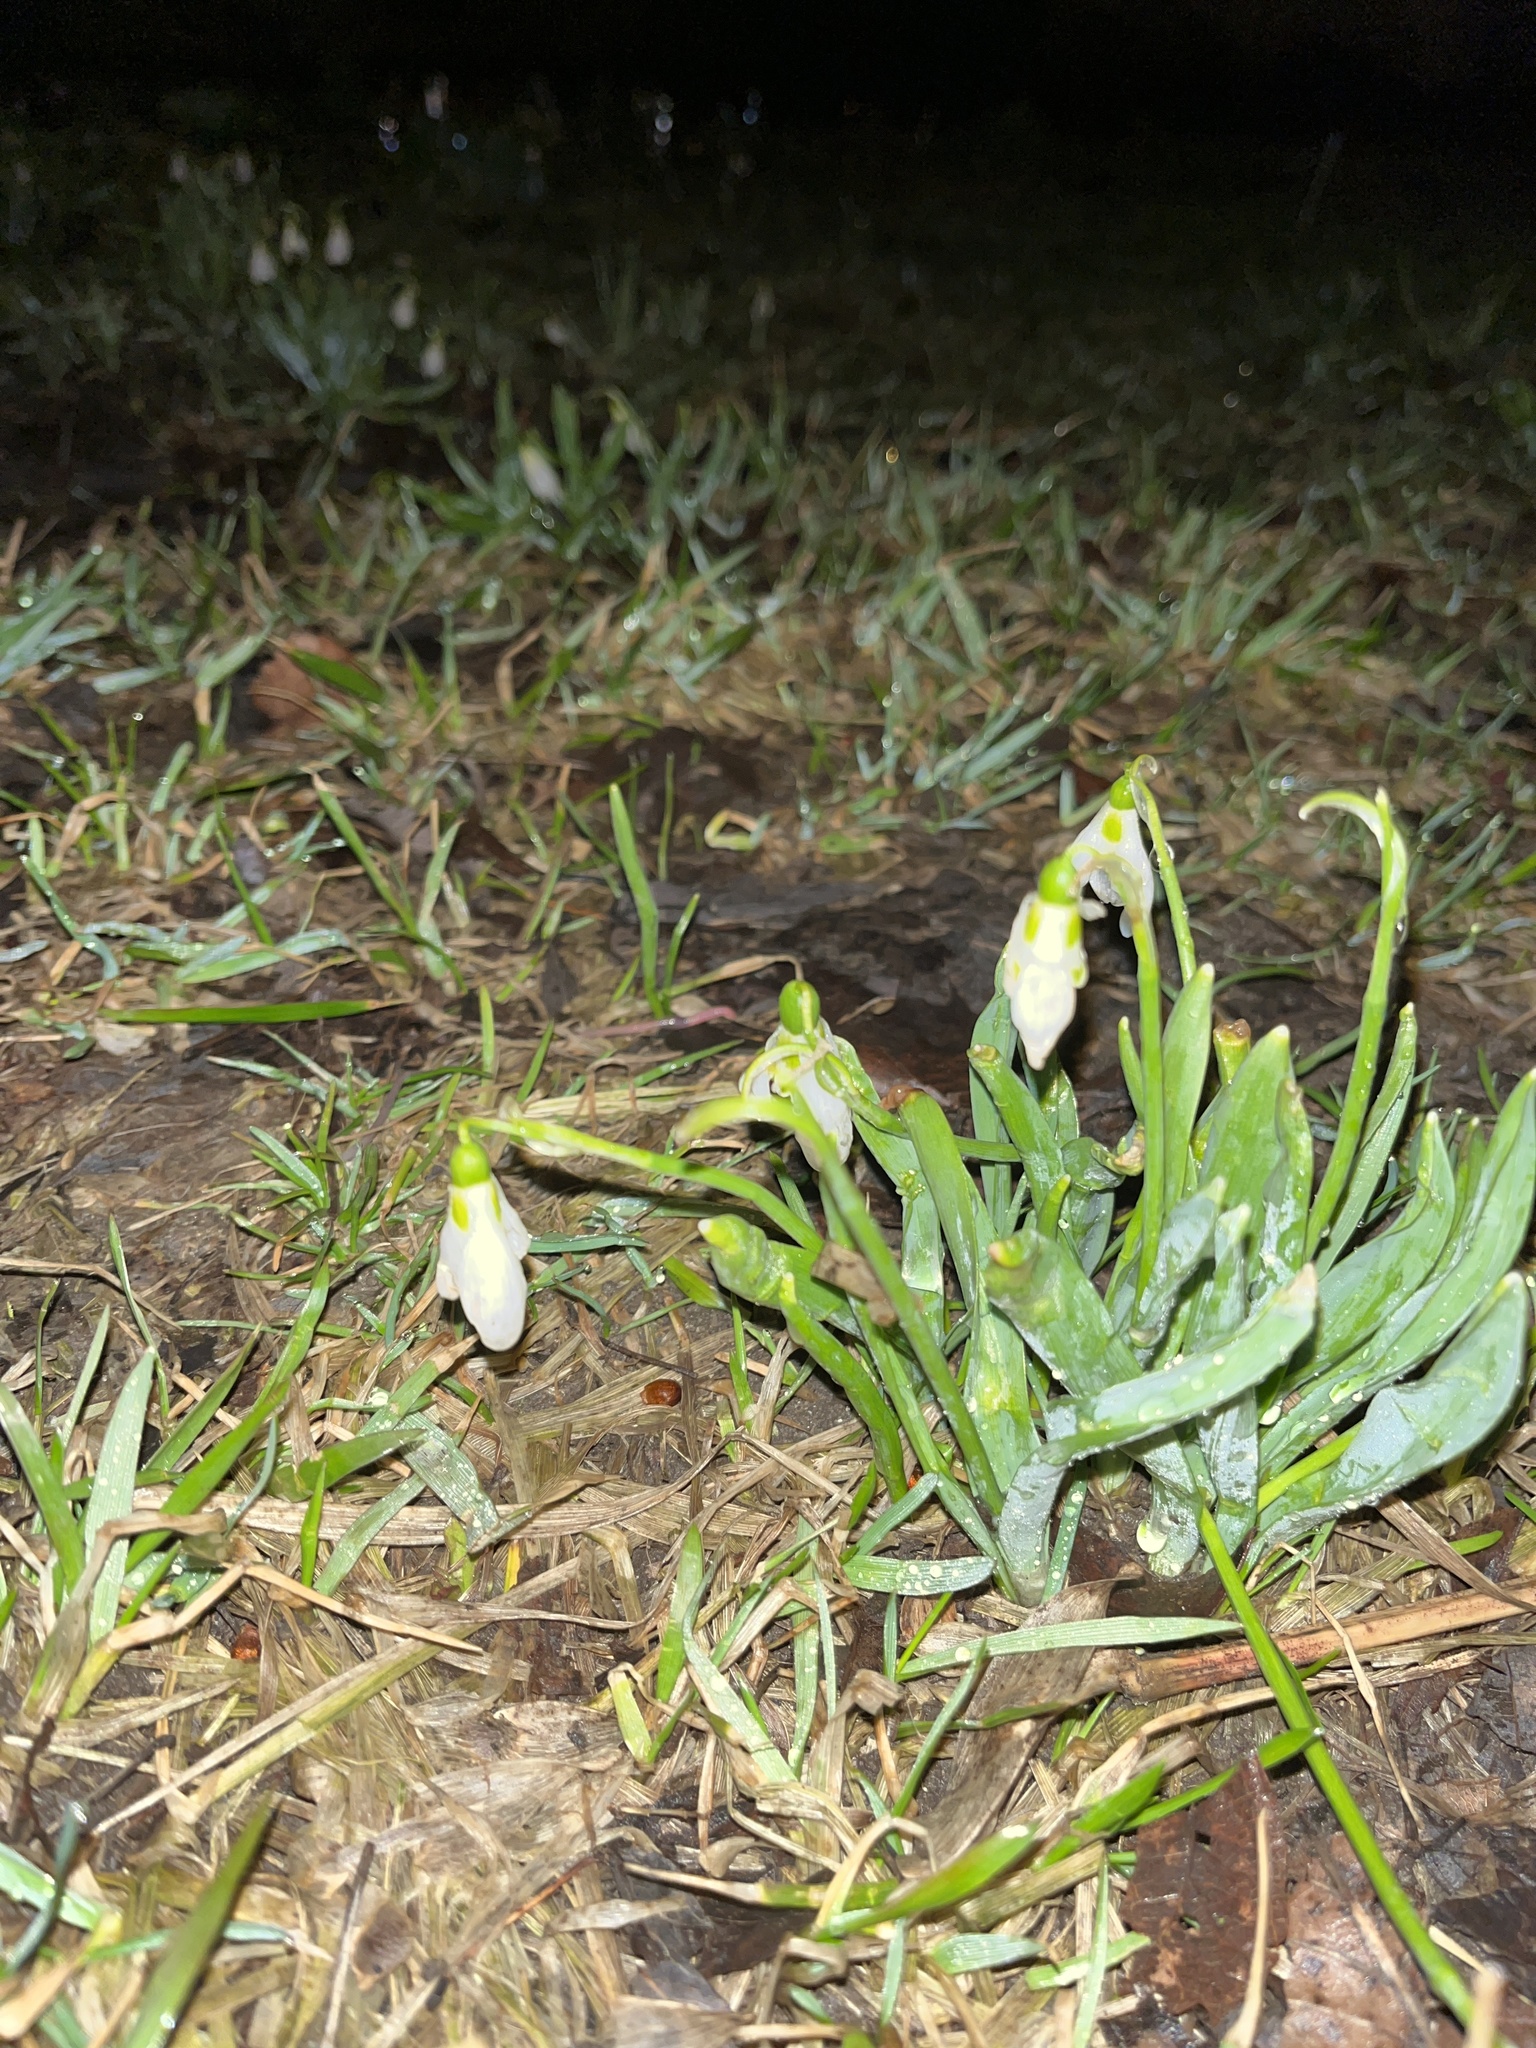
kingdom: Plantae
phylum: Tracheophyta
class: Liliopsida
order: Asparagales
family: Amaryllidaceae
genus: Galanthus
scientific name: Galanthus elwesii
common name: Greater snowdrop
